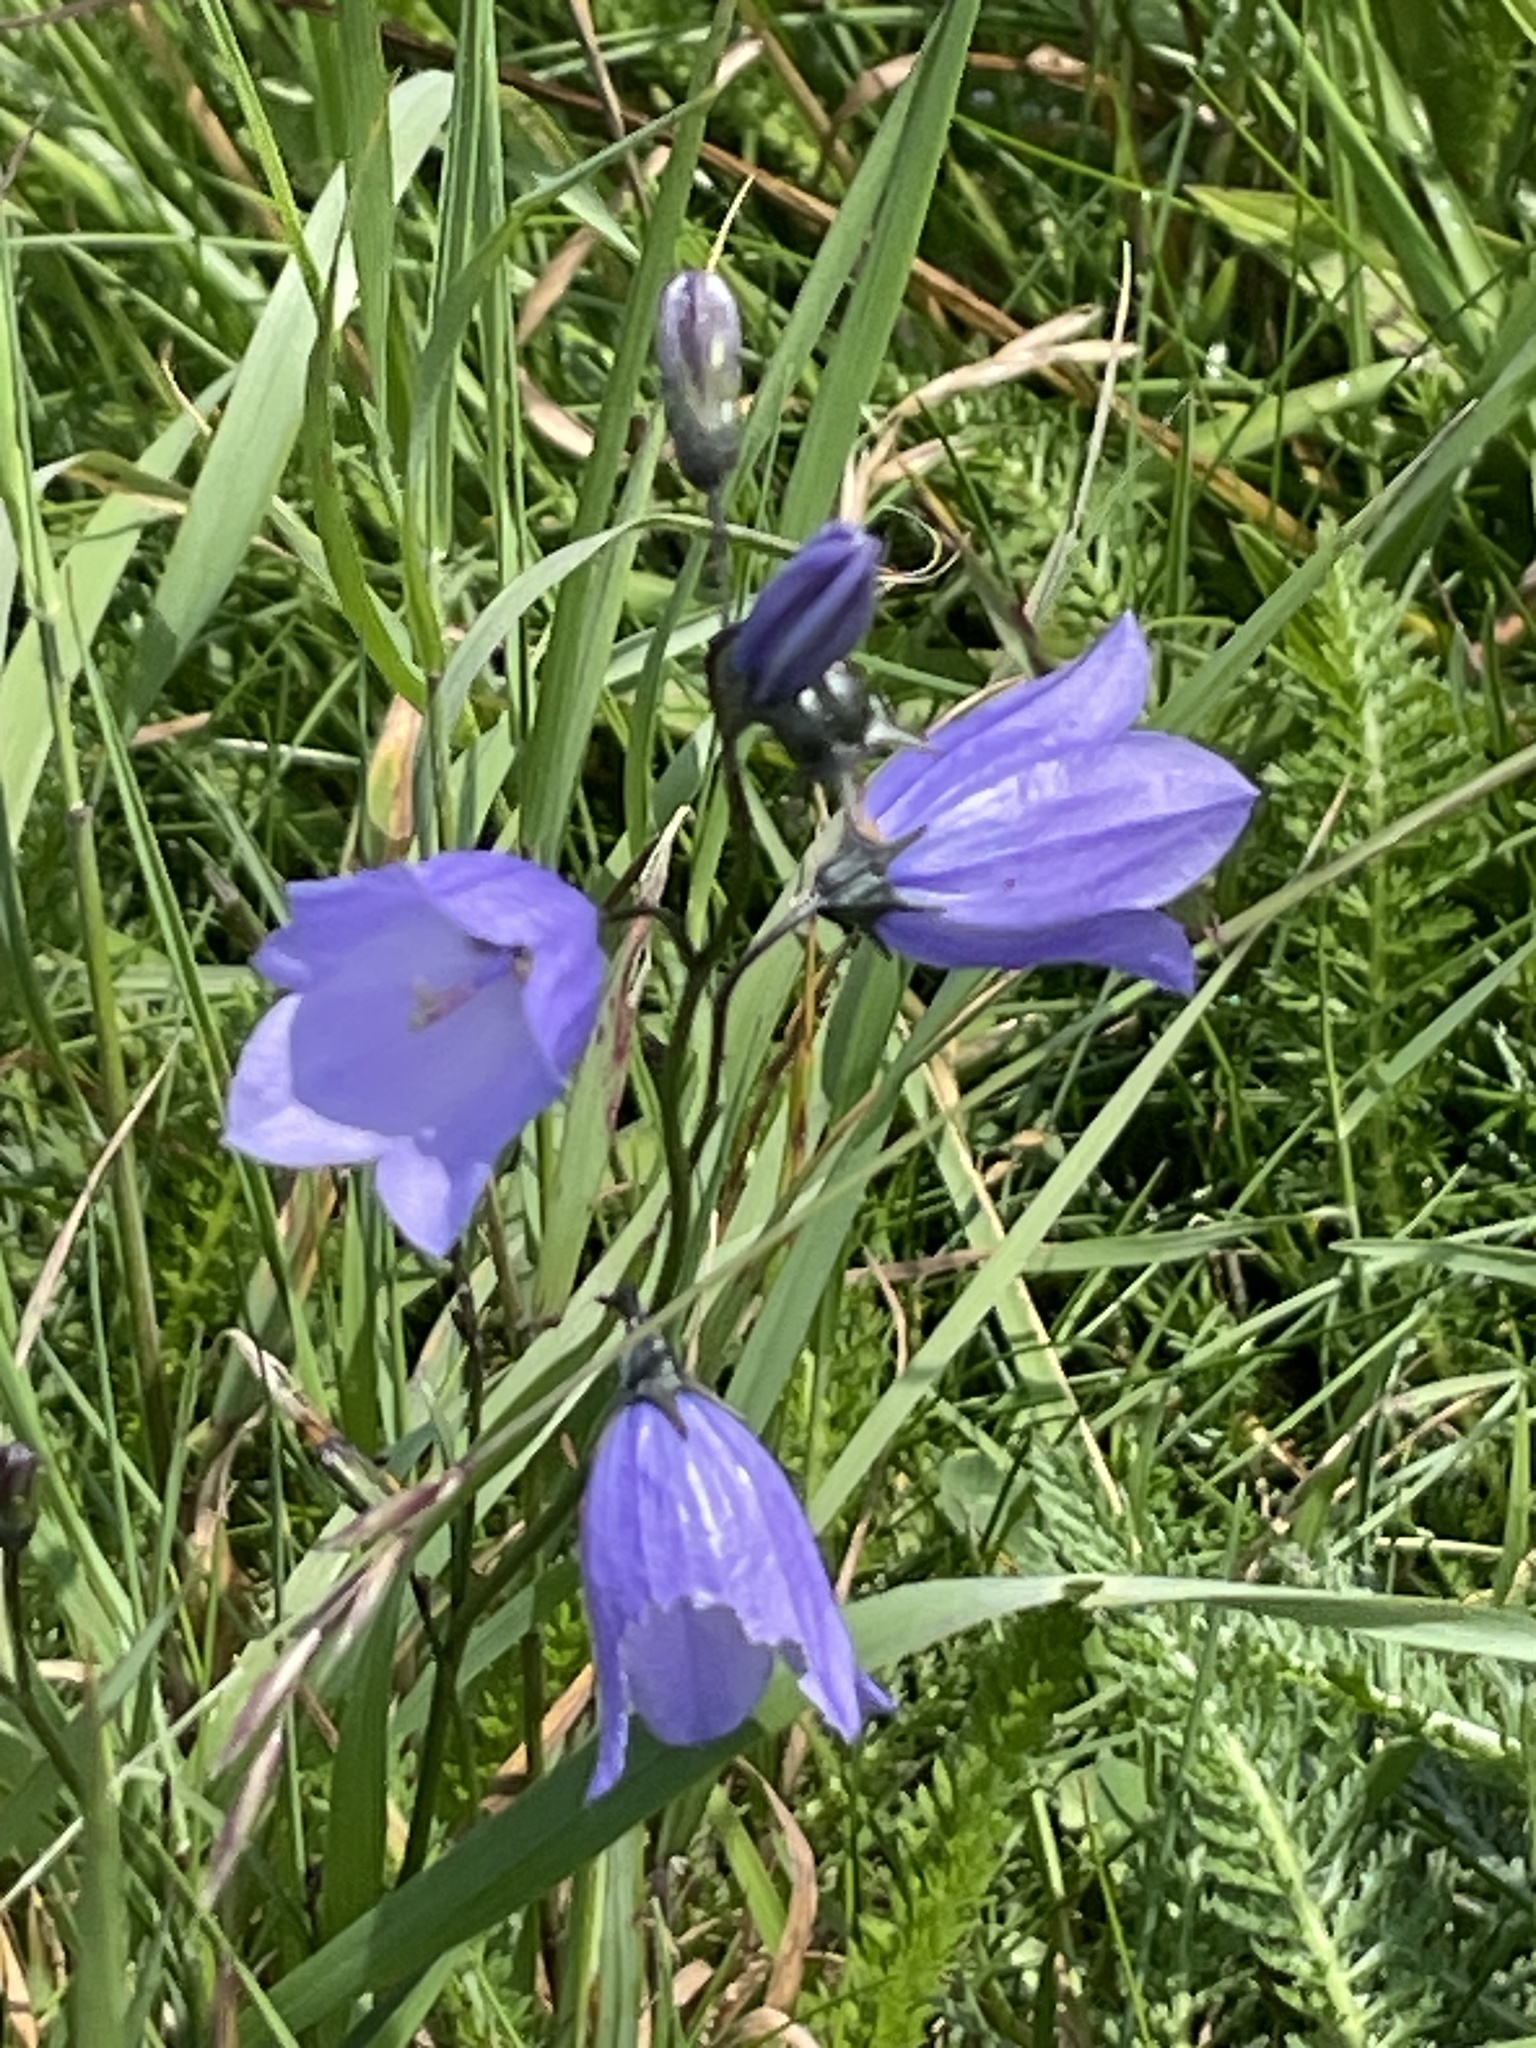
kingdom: Plantae
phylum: Tracheophyta
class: Magnoliopsida
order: Asterales
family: Campanulaceae
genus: Campanula
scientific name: Campanula rotundifolia
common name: Harebell
